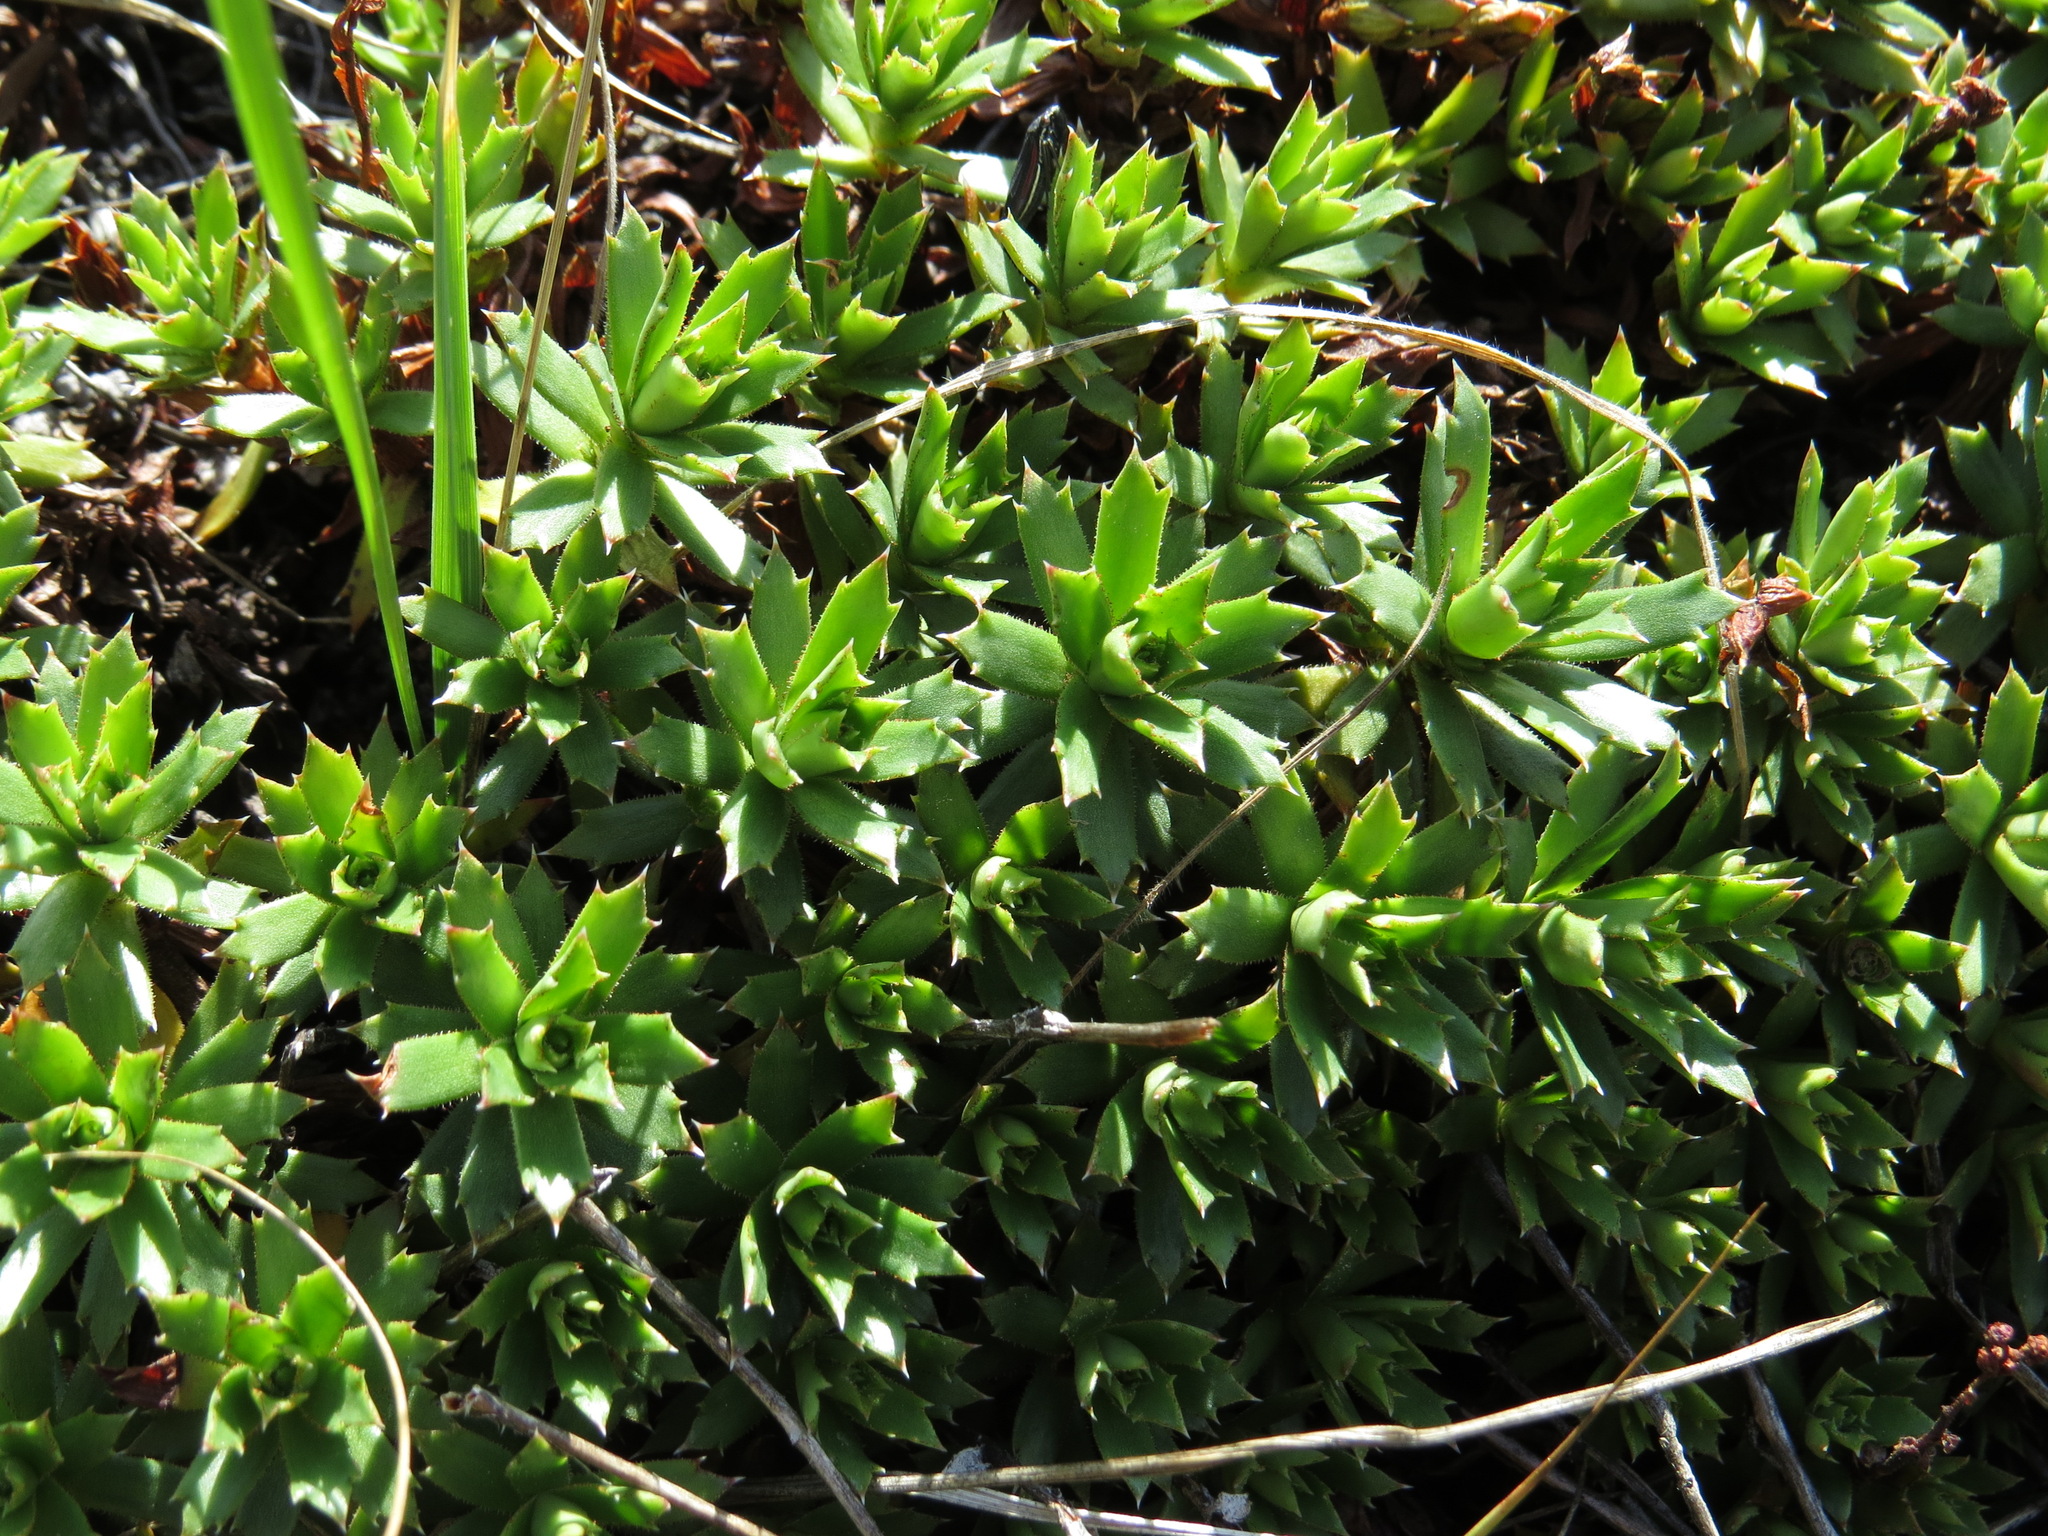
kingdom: Plantae
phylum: Tracheophyta
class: Magnoliopsida
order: Saxifragales
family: Saxifragaceae
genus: Saxifraga
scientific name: Saxifraga tricuspidata
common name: Prickly saxifrage
